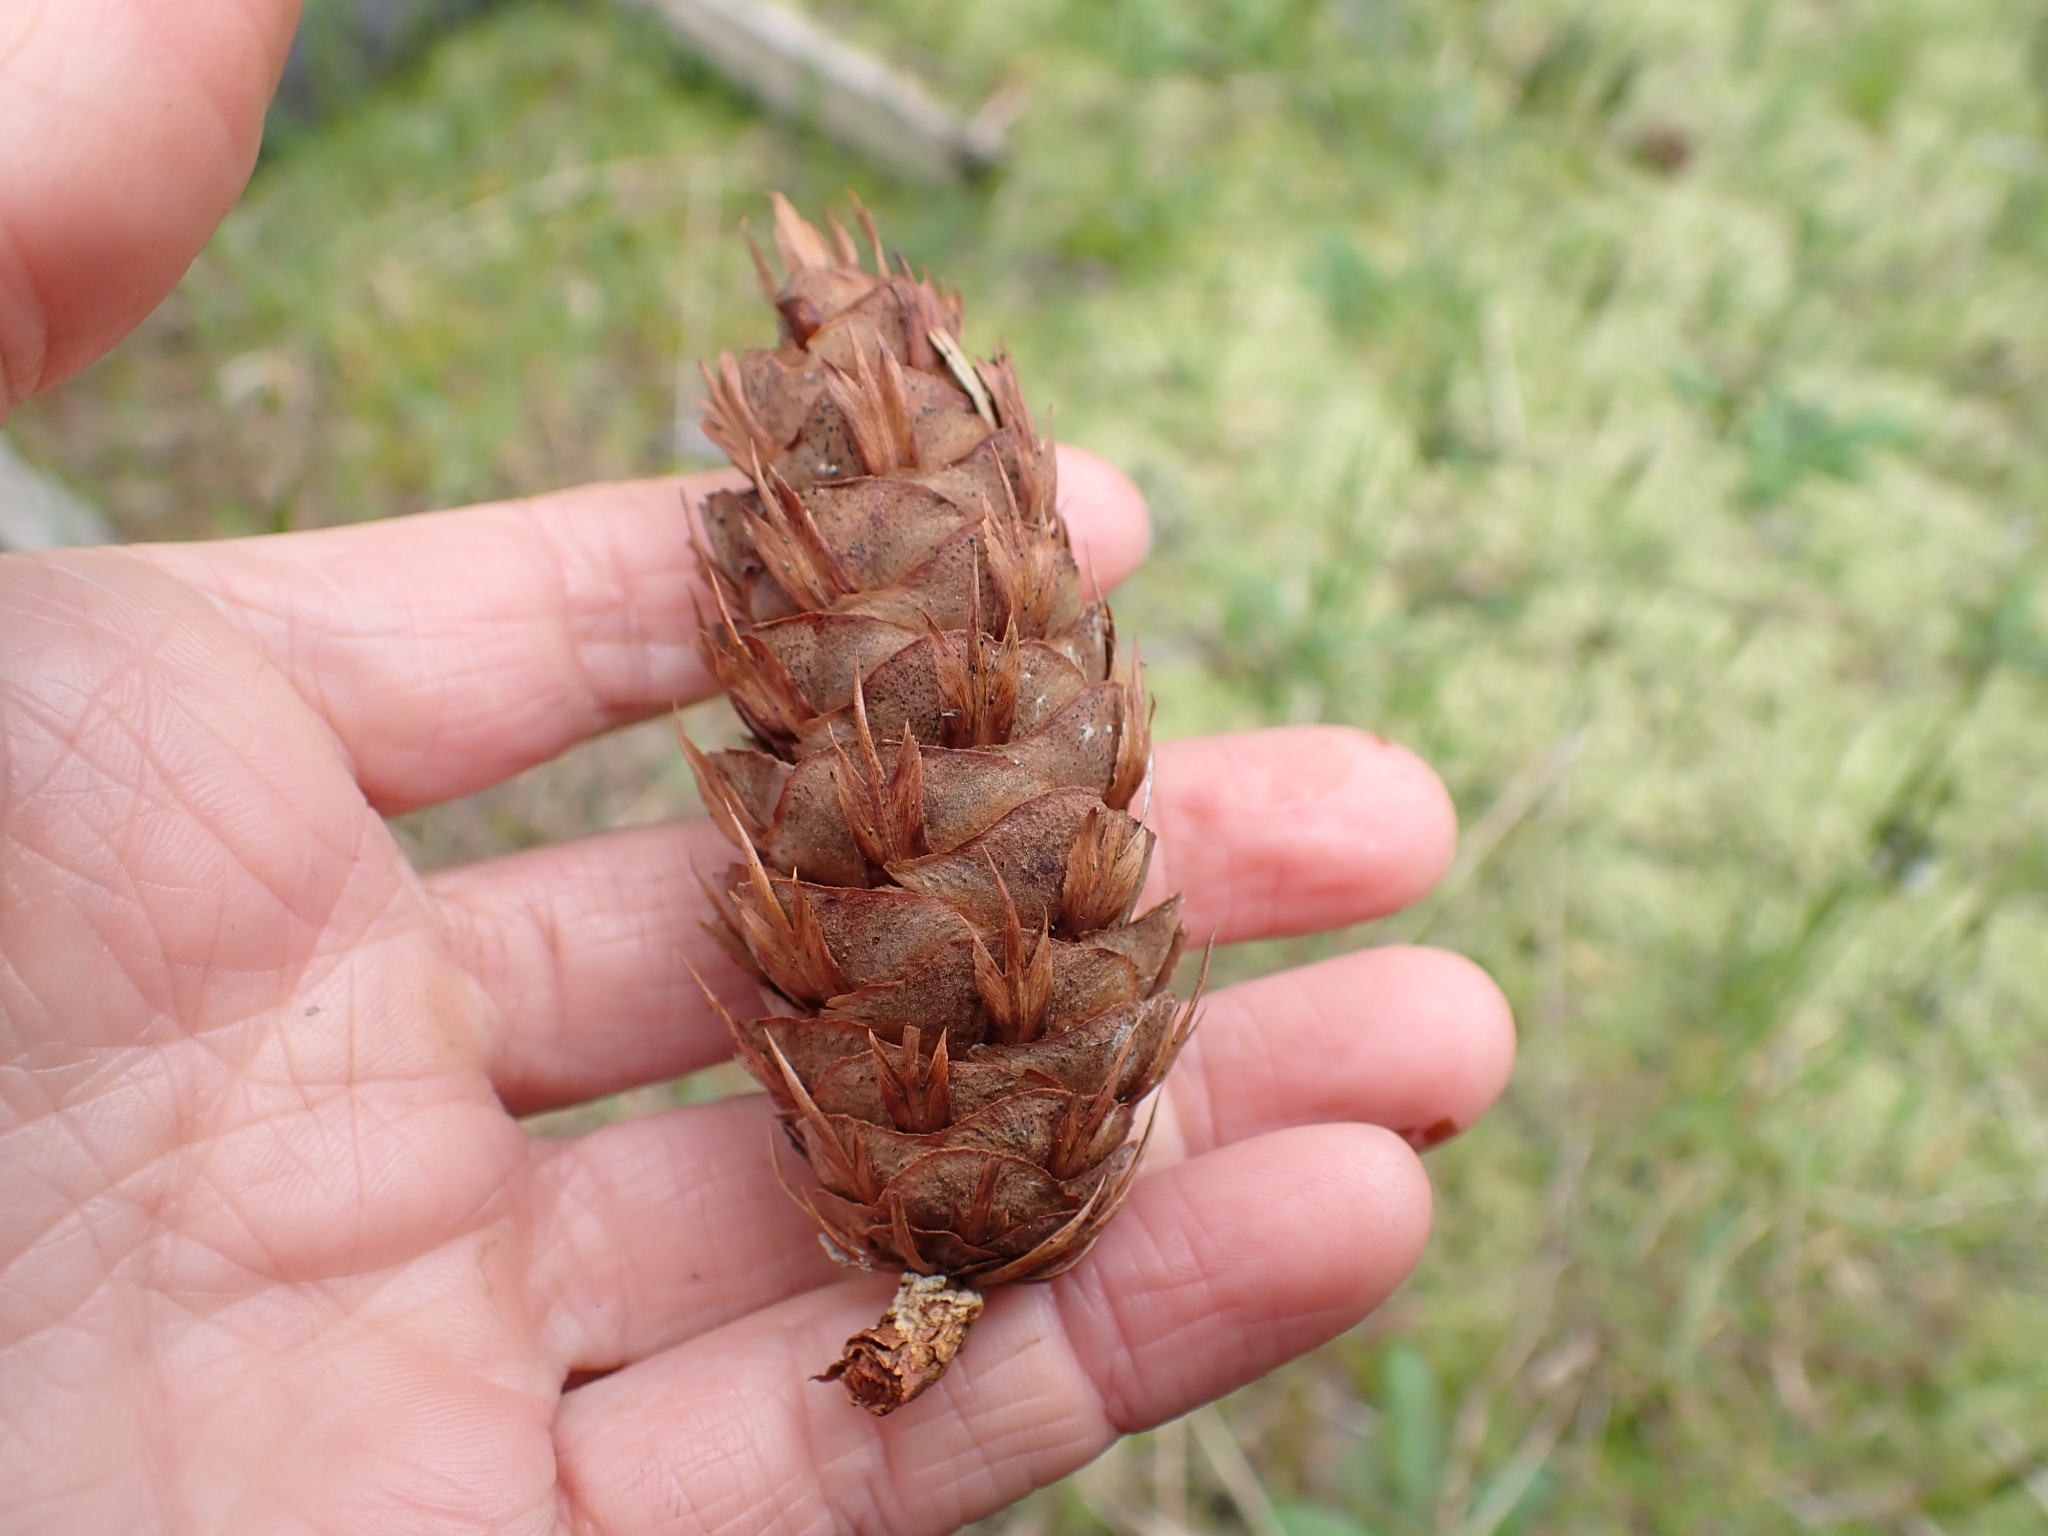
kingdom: Plantae
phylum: Tracheophyta
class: Pinopsida
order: Pinales
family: Pinaceae
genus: Pseudotsuga
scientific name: Pseudotsuga menziesii
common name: Douglas fir
